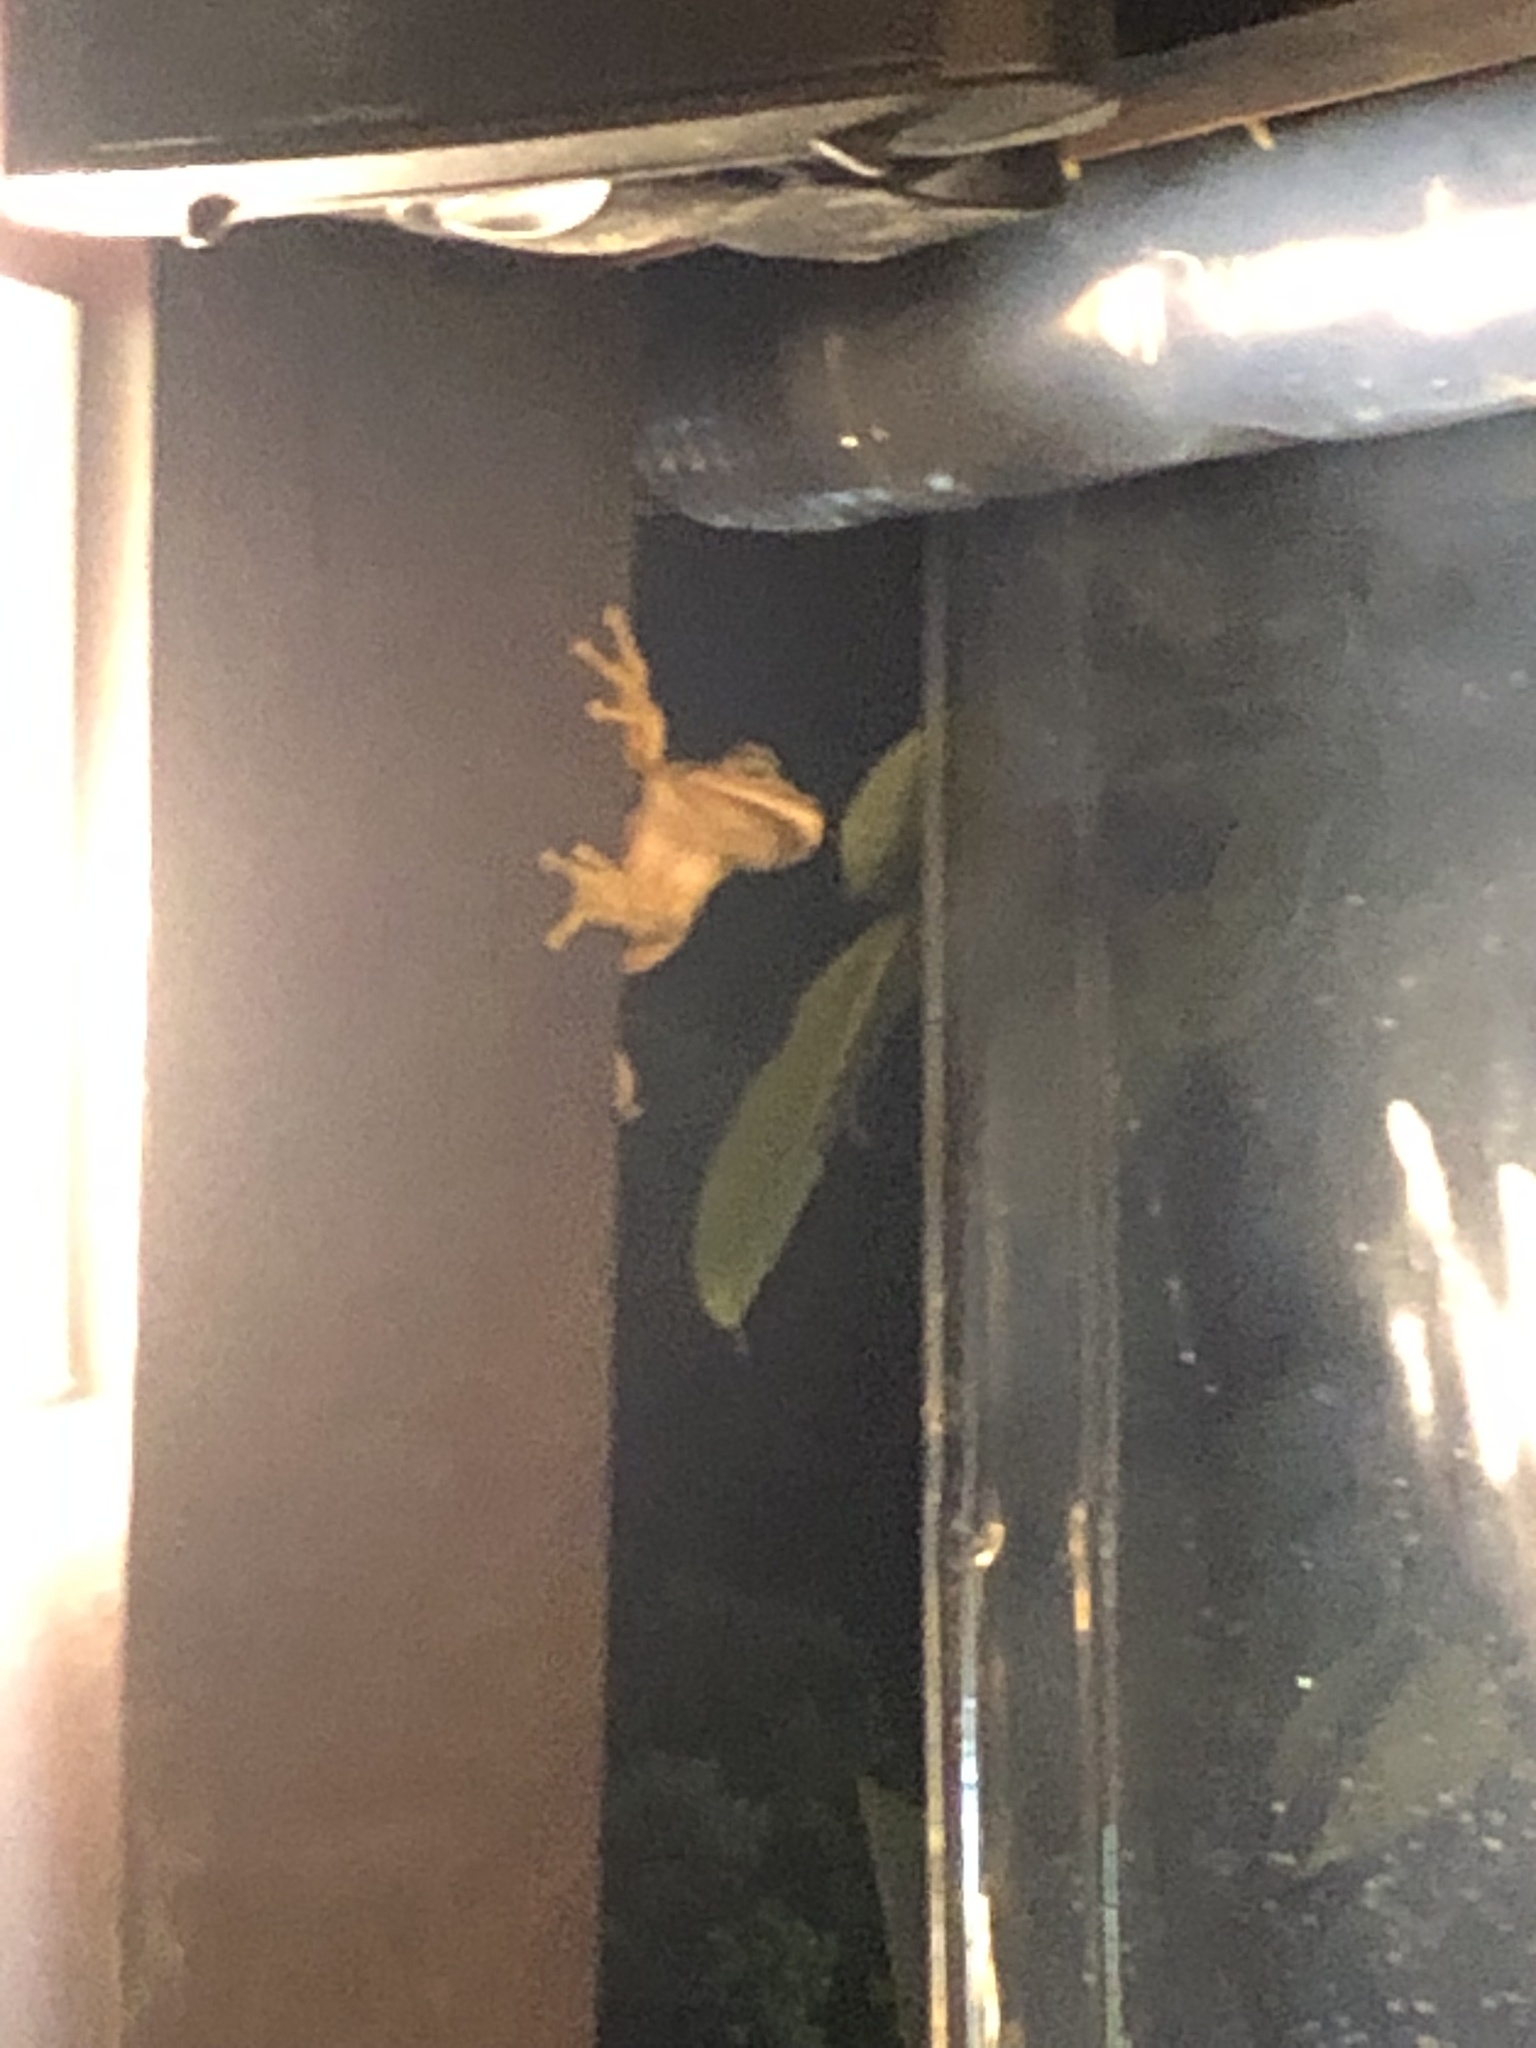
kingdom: Animalia
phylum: Chordata
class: Amphibia
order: Anura
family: Hylidae
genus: Boana
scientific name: Boana faber
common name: Blacksmith tree frog
